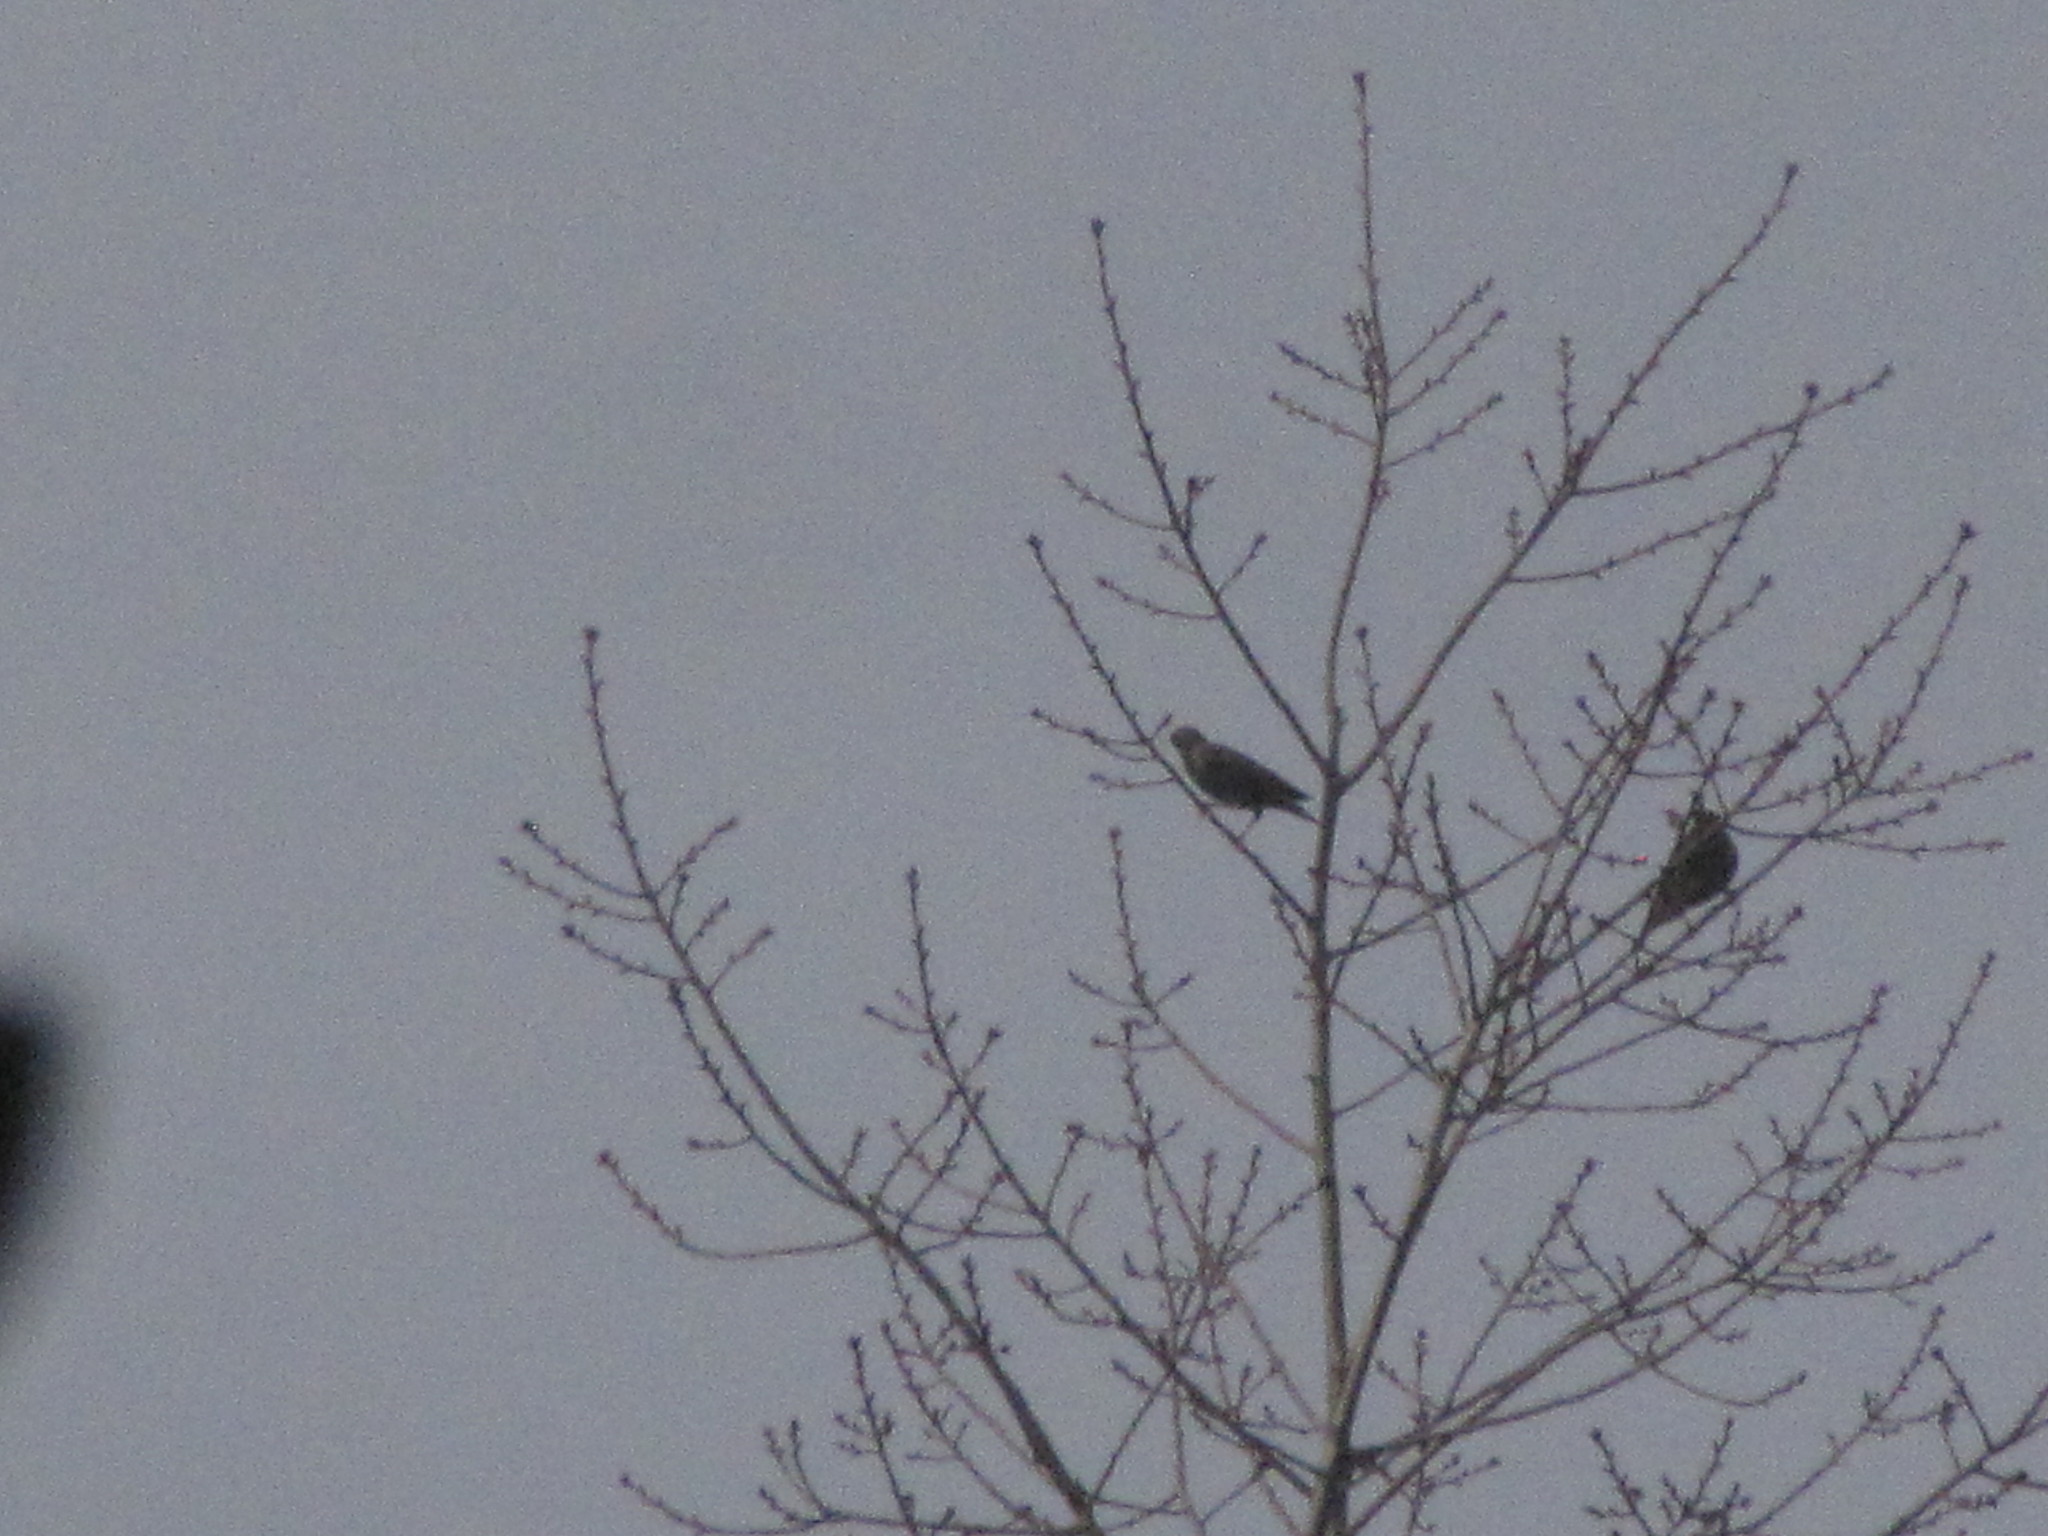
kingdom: Animalia
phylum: Chordata
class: Aves
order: Passeriformes
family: Sturnidae
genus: Sturnus
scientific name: Sturnus vulgaris
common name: Common starling
